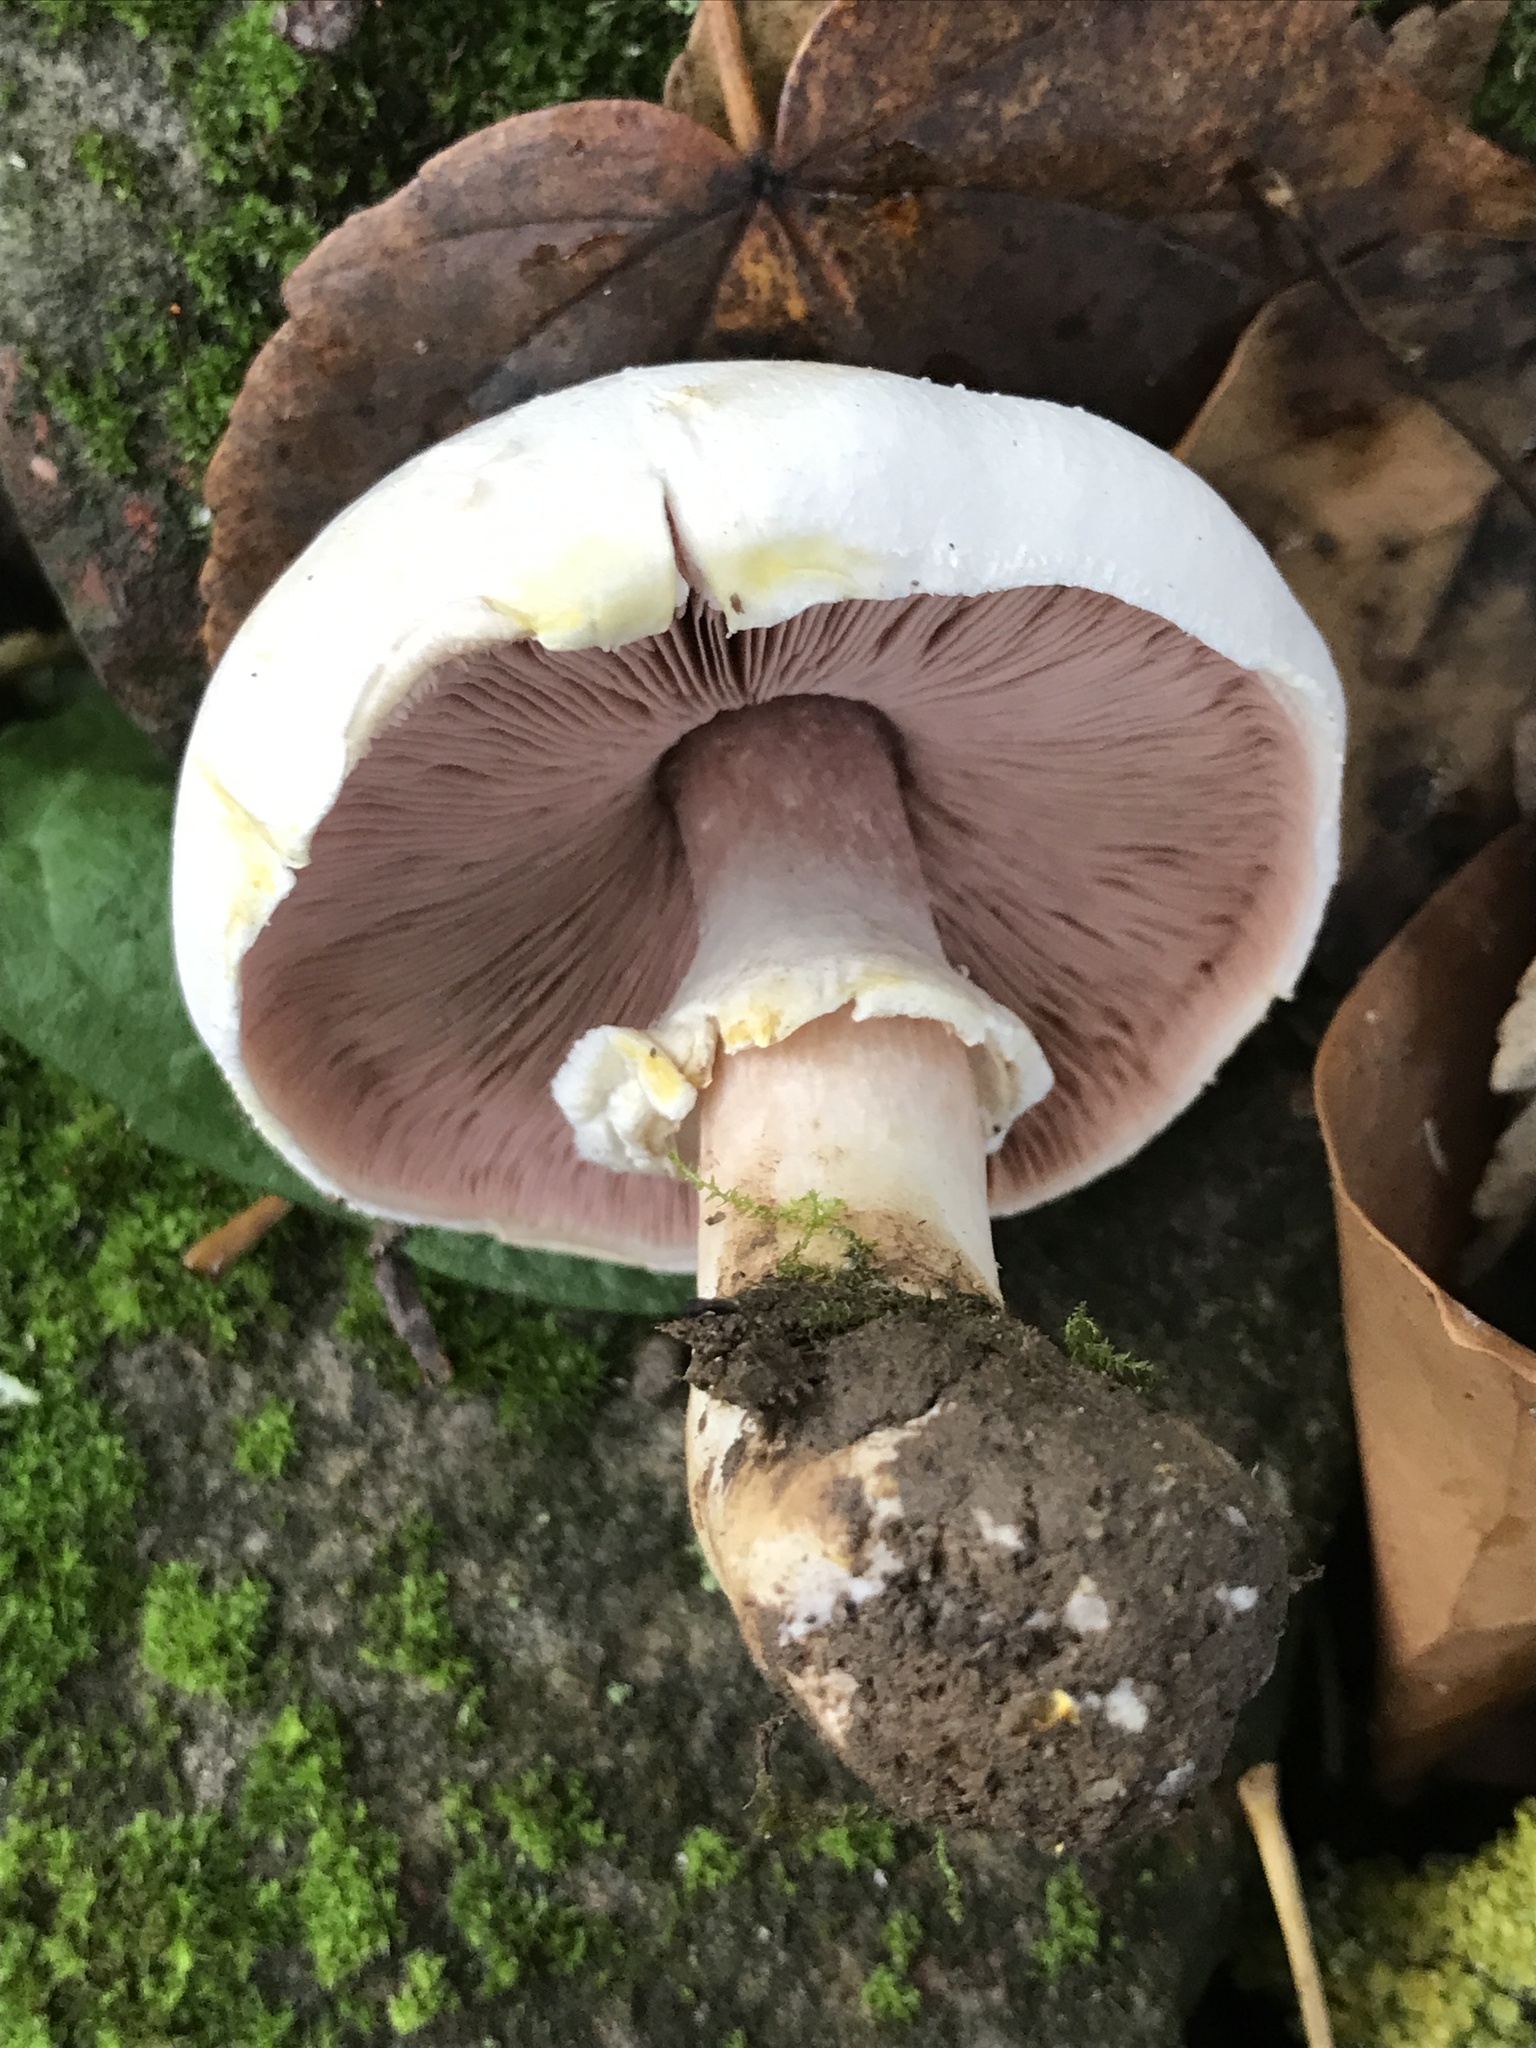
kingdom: Fungi
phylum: Basidiomycota
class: Agaricomycetes
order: Agaricales
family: Agaricaceae
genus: Agaricus
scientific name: Agaricus xanthodermus
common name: Yellow stainer
